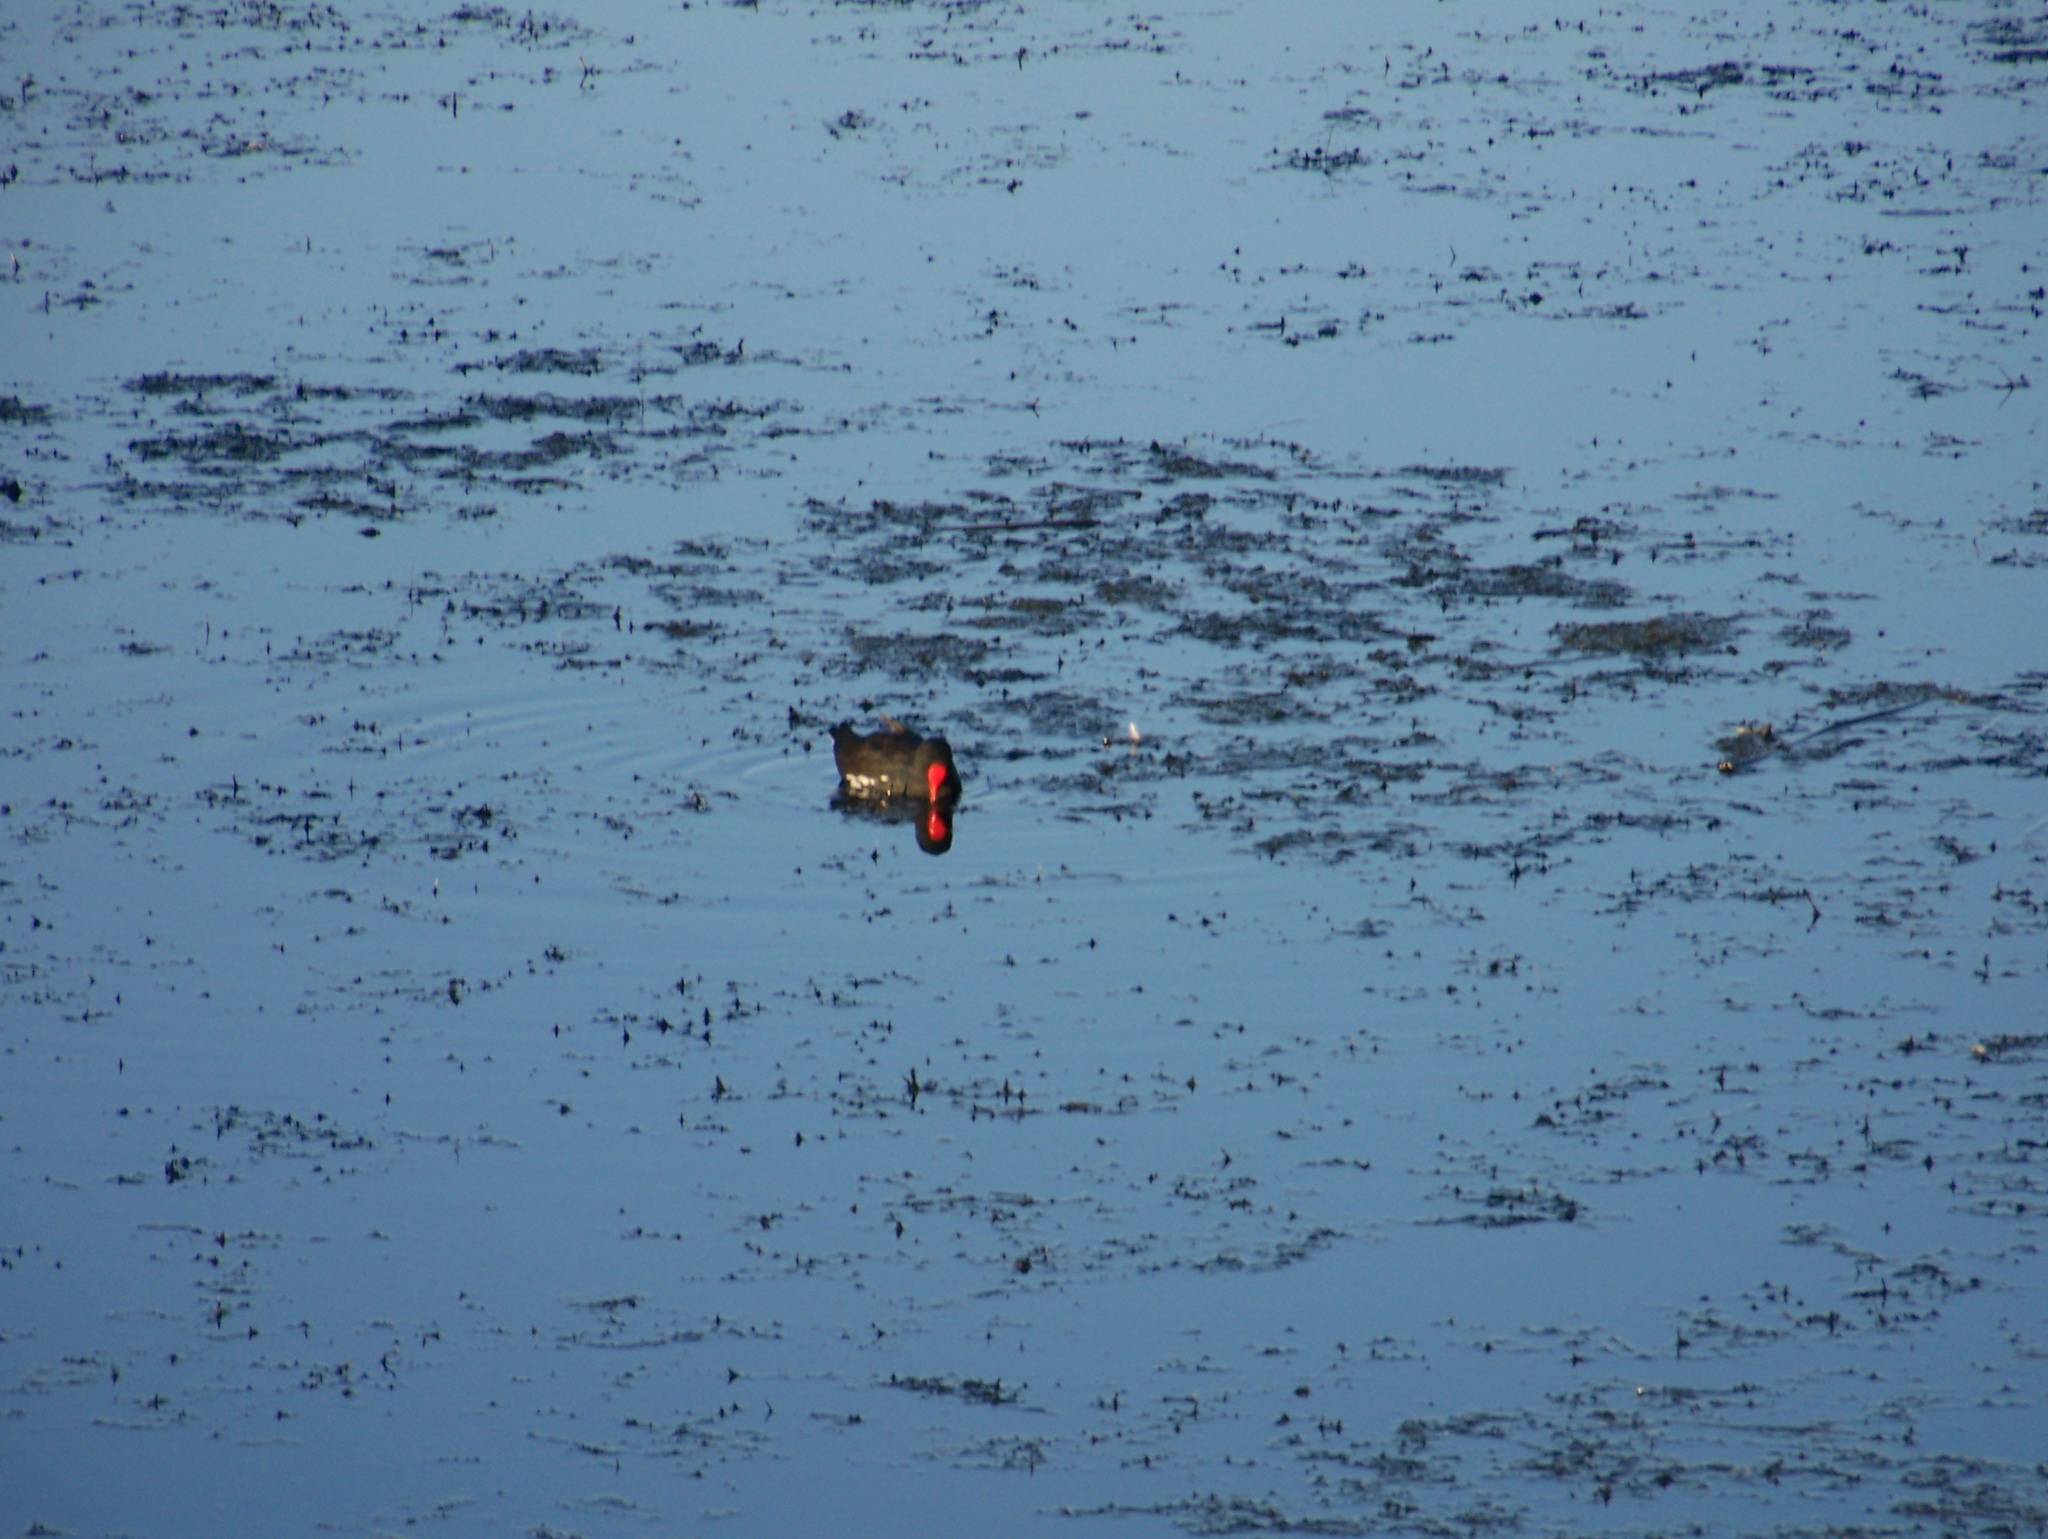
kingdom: Animalia
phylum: Chordata
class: Aves
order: Gruiformes
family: Rallidae
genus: Gallinula
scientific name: Gallinula chloropus
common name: Common moorhen
